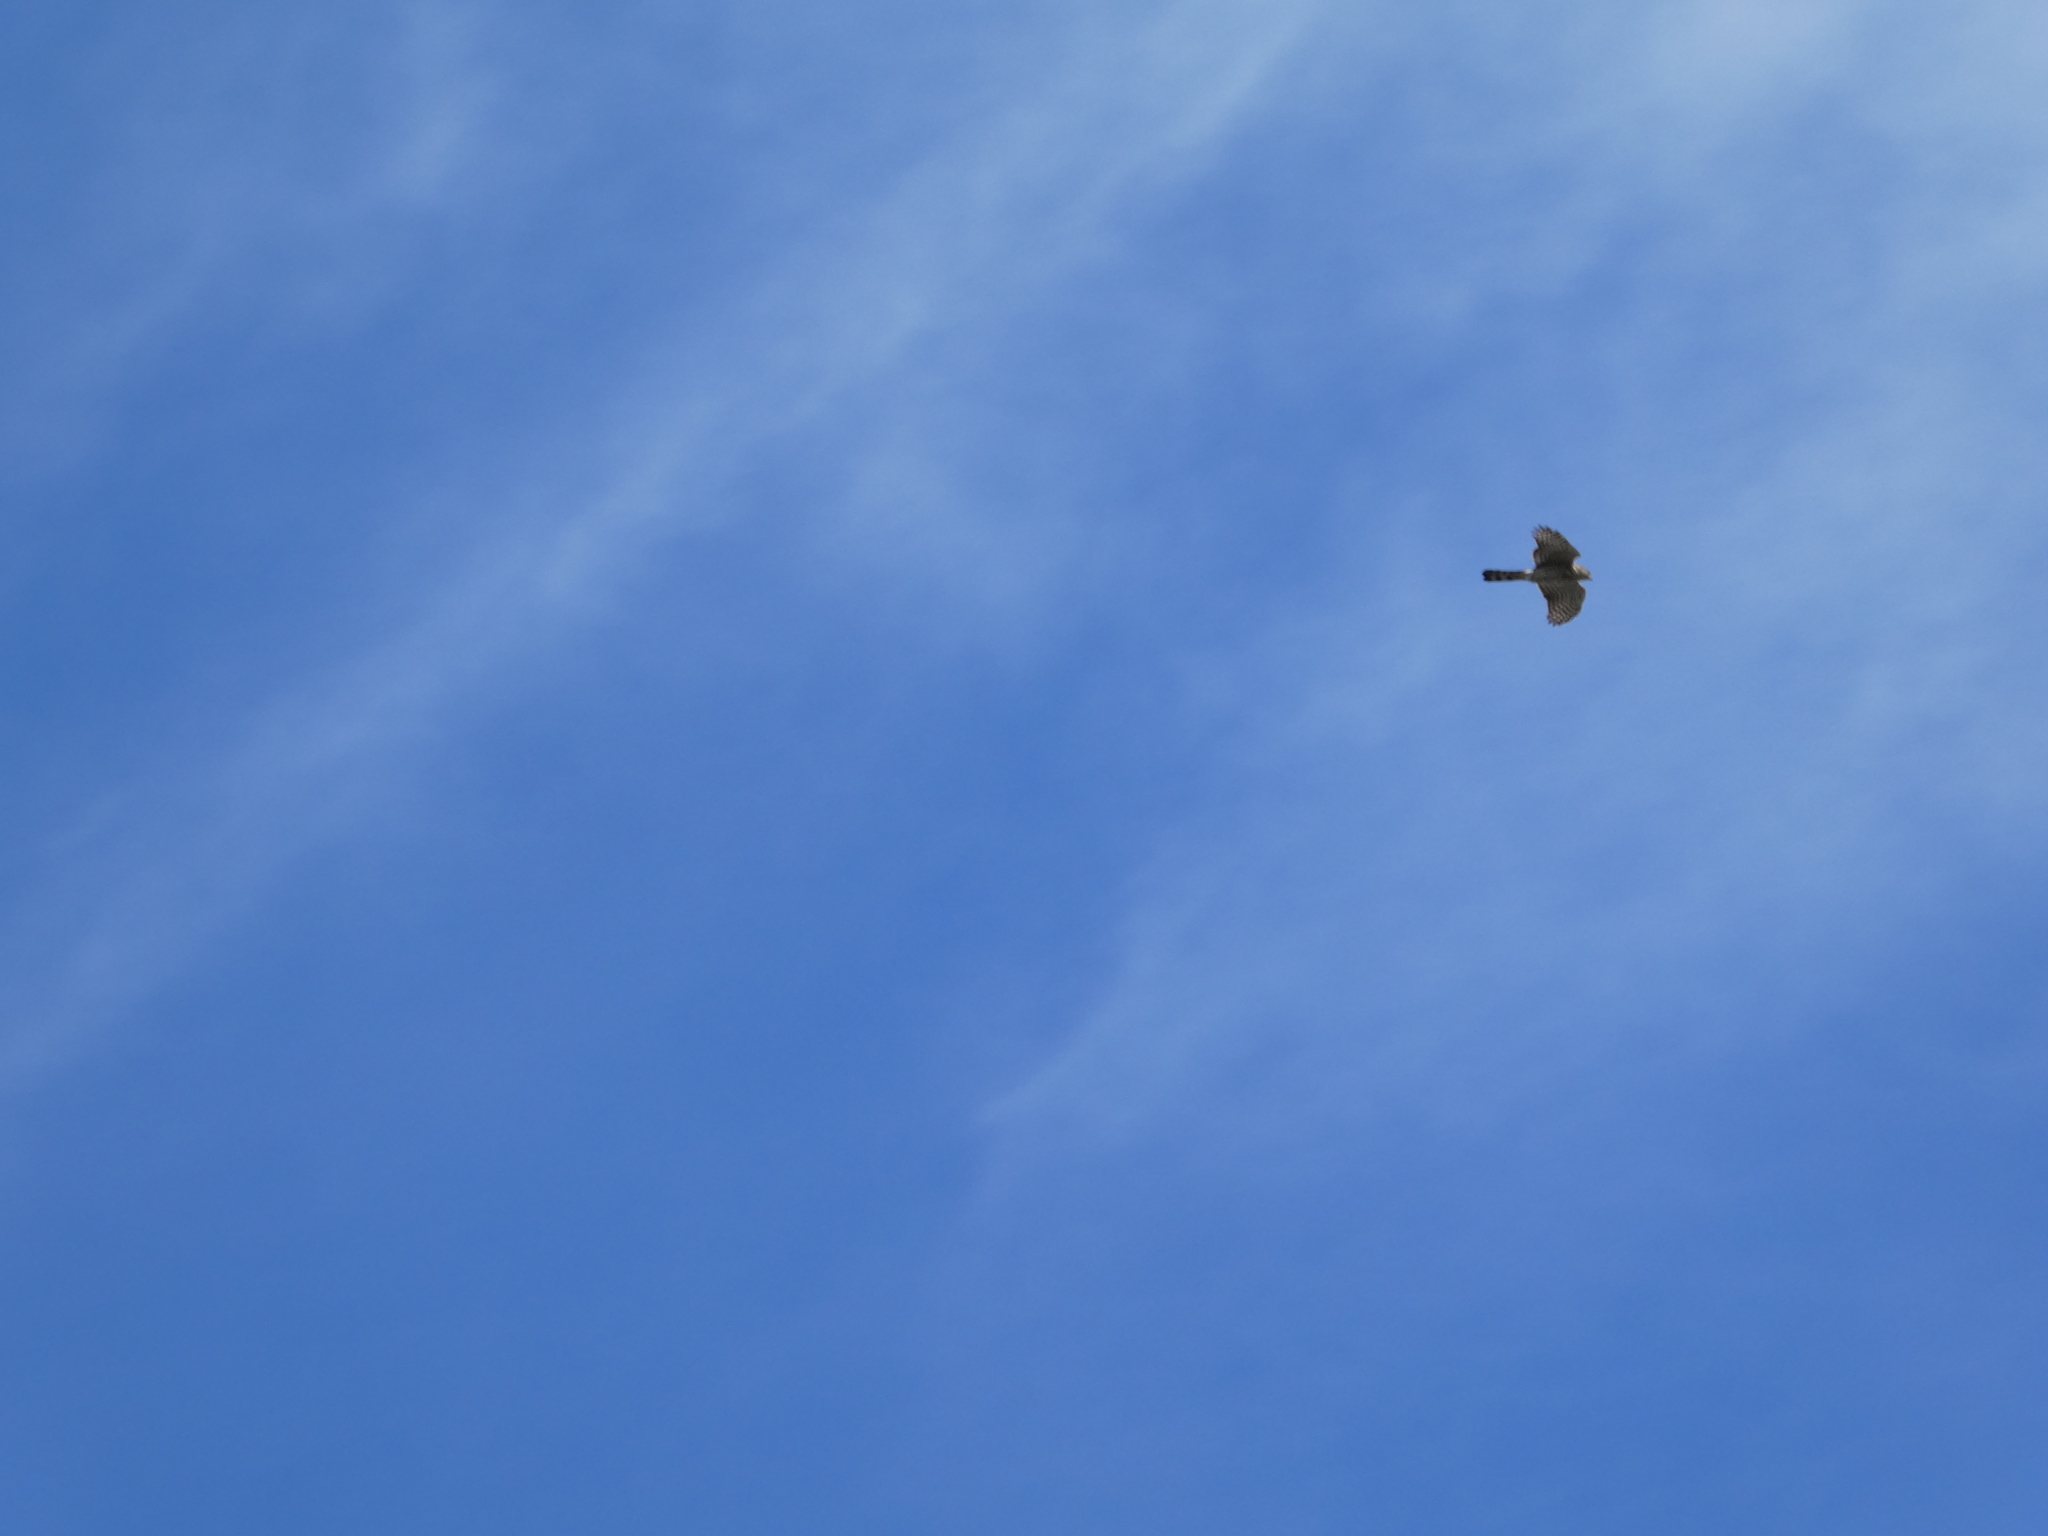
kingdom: Animalia
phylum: Chordata
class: Aves
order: Accipitriformes
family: Accipitridae
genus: Accipiter
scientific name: Accipiter cooperii
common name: Cooper's hawk
